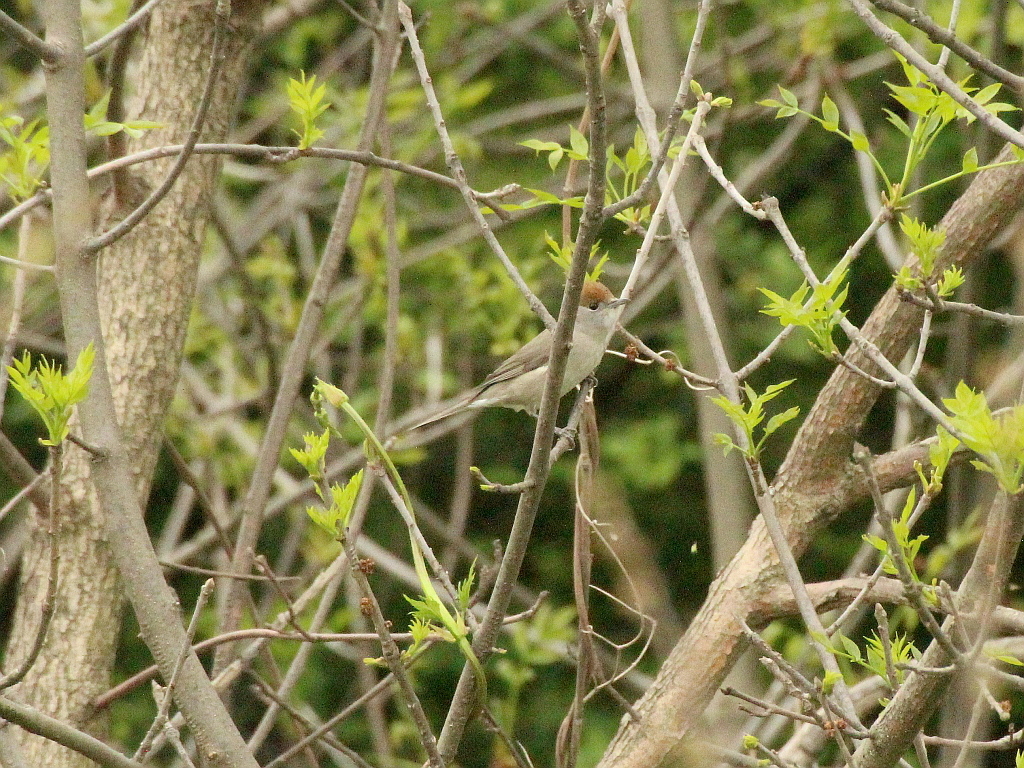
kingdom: Animalia
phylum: Chordata
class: Aves
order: Passeriformes
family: Sylviidae
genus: Sylvia
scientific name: Sylvia atricapilla
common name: Eurasian blackcap
